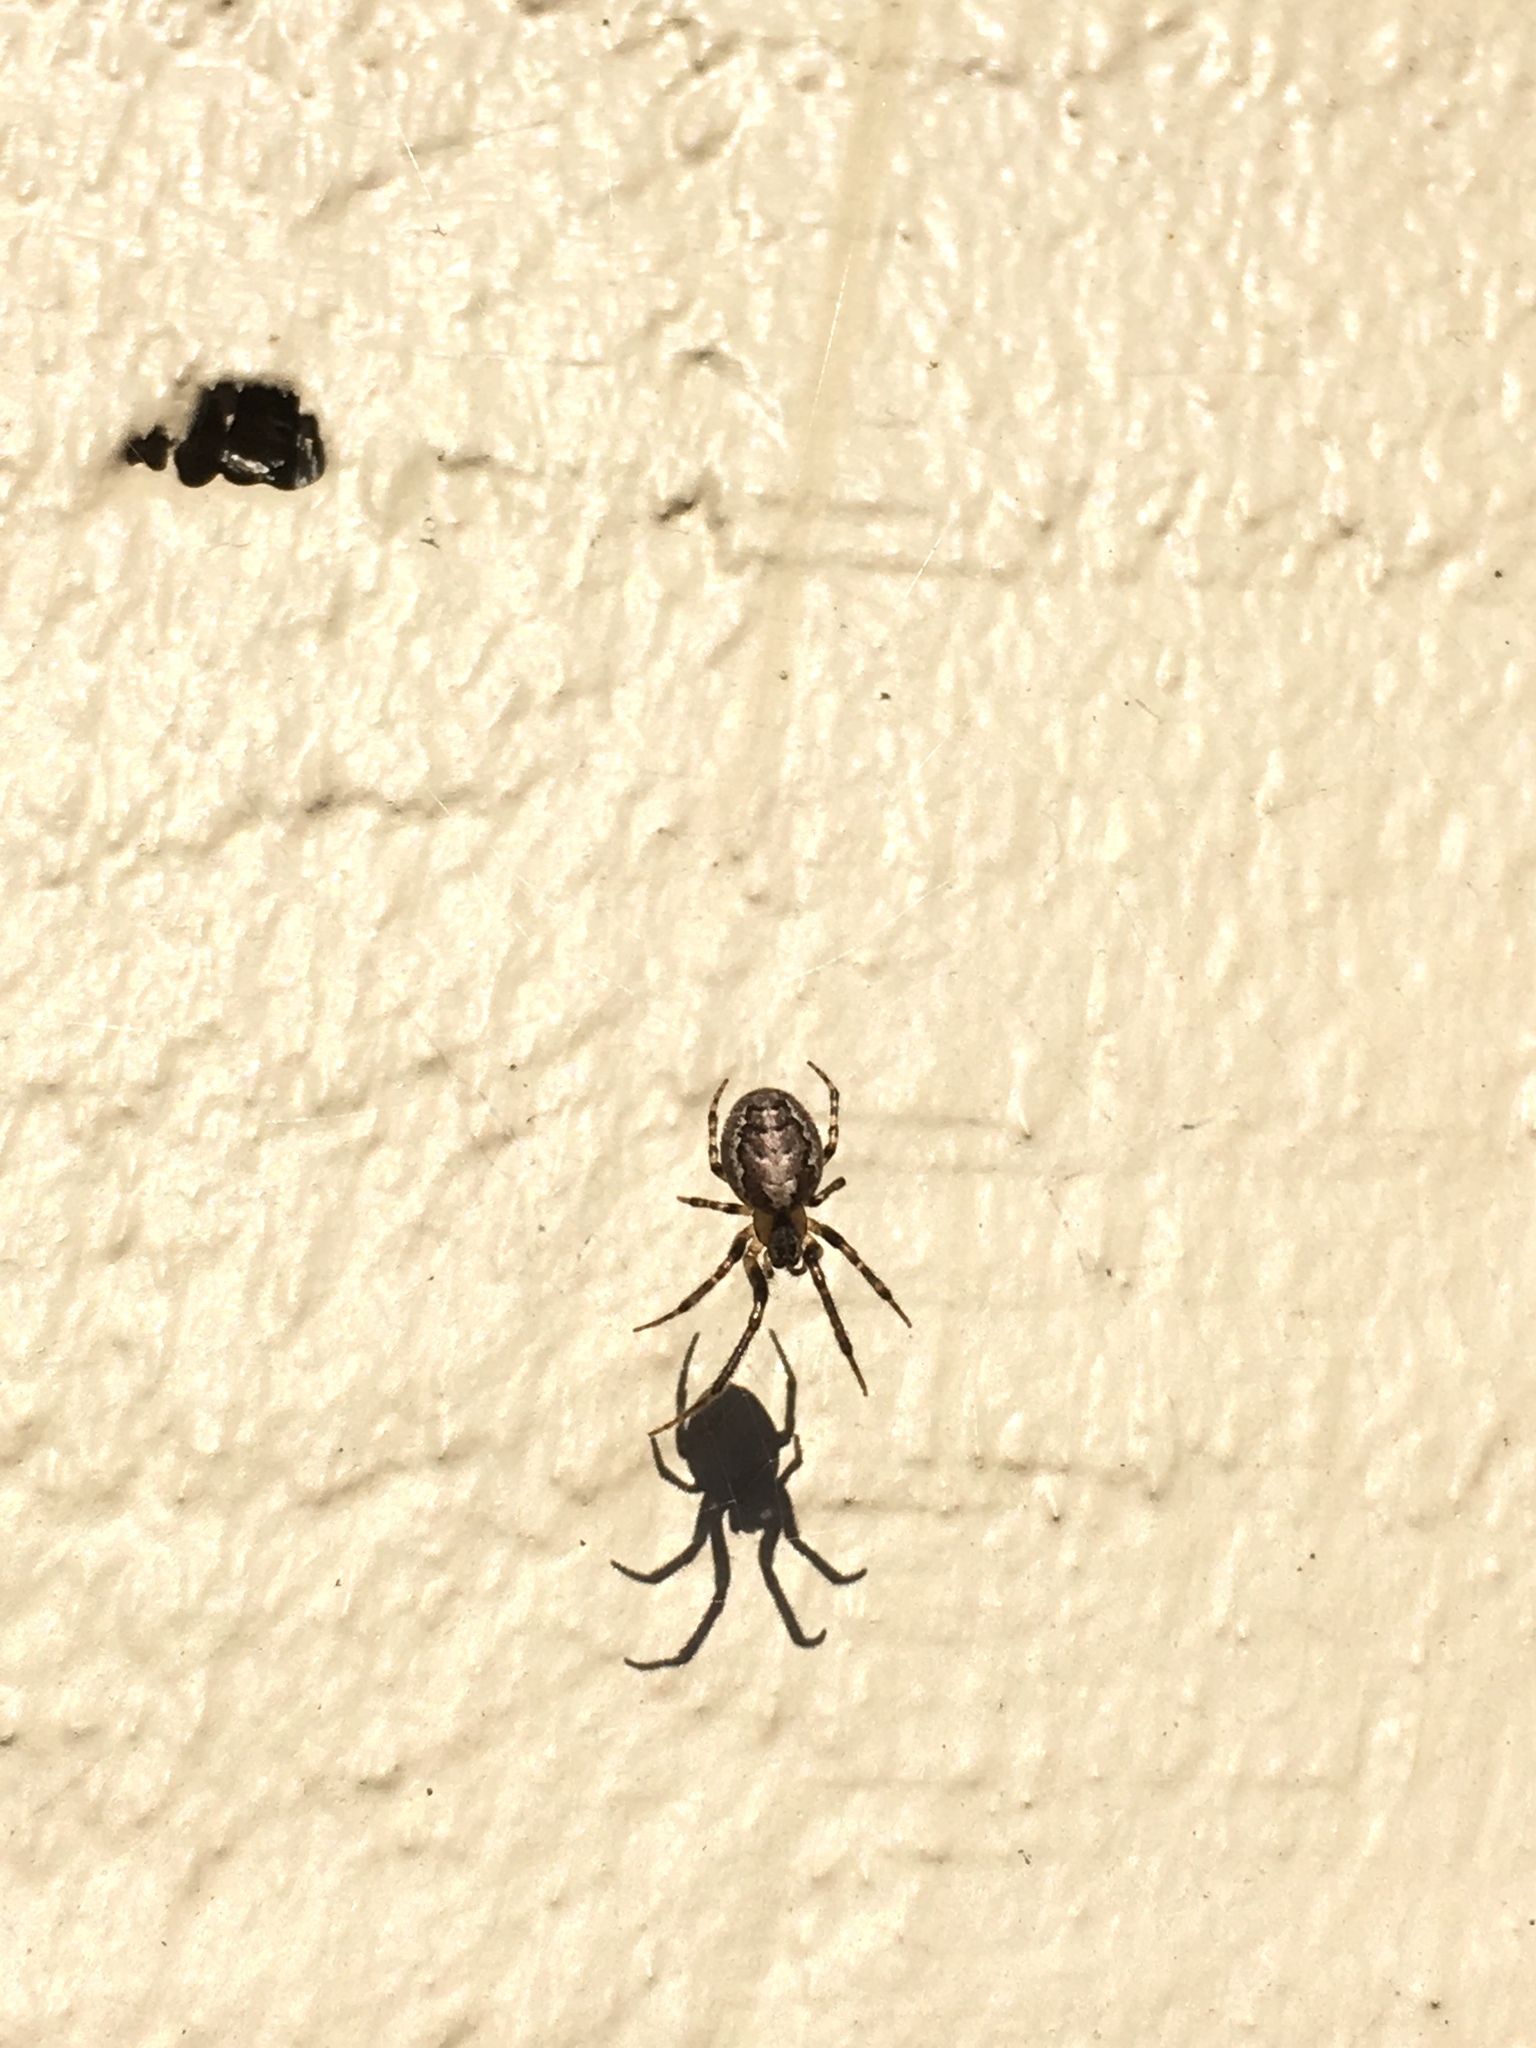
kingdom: Animalia
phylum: Arthropoda
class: Arachnida
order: Araneae
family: Araneidae
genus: Zygiella
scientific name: Zygiella x-notata
